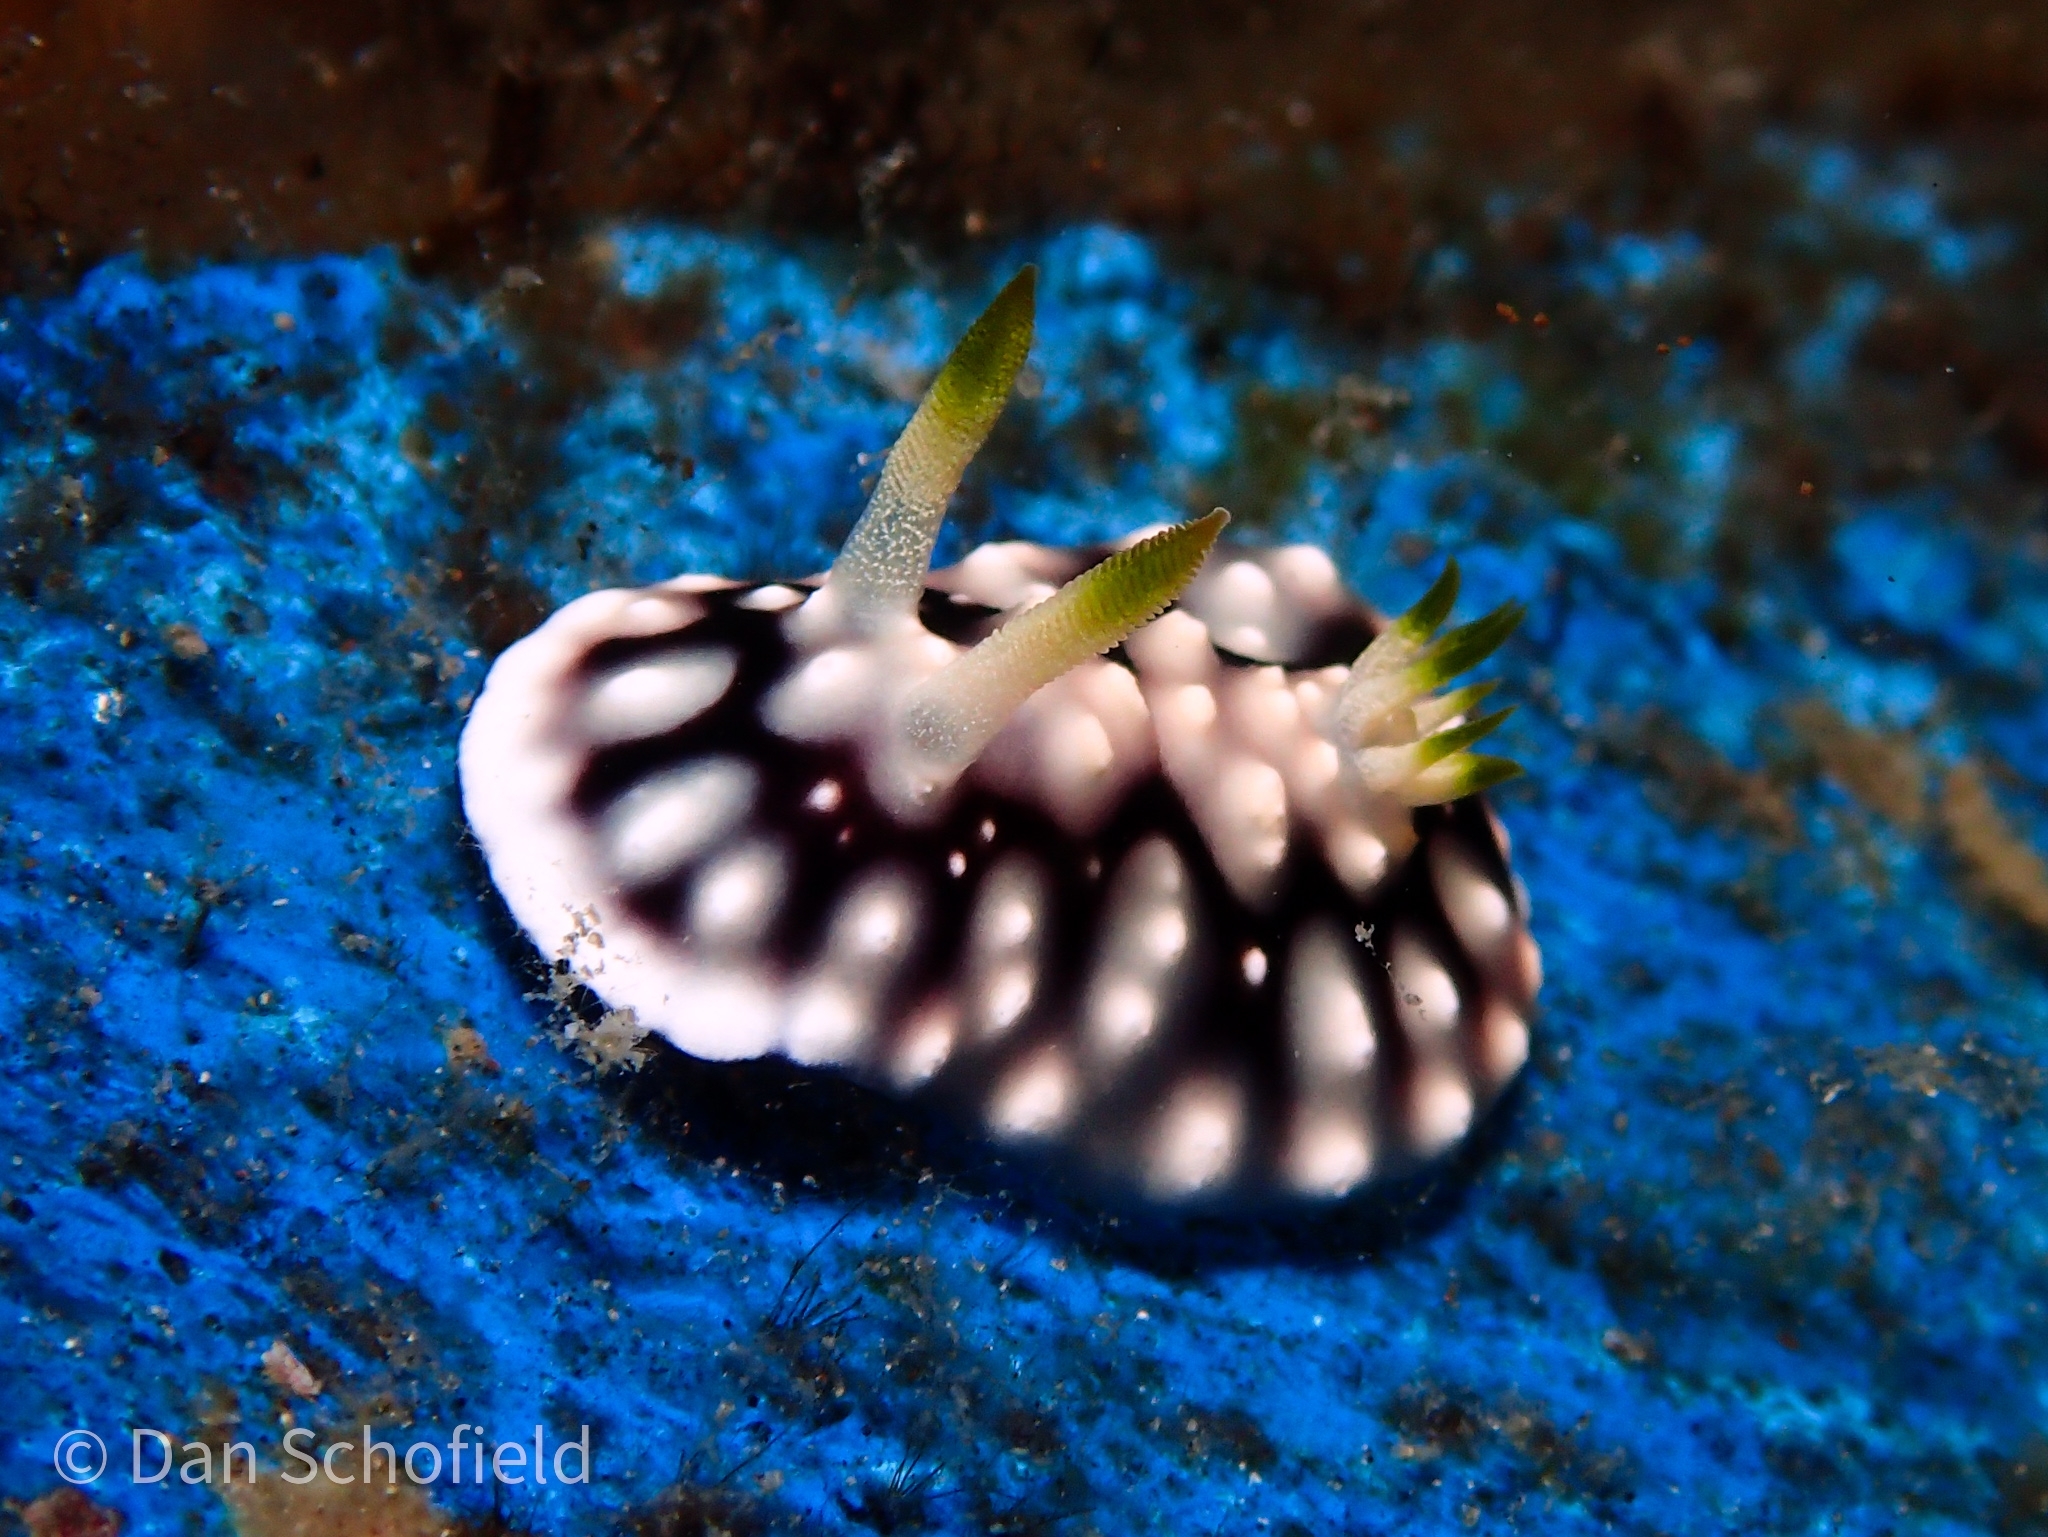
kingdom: Animalia
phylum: Mollusca
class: Gastropoda
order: Nudibranchia
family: Chromodorididae
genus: Goniobranchus
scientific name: Goniobranchus geometricus
